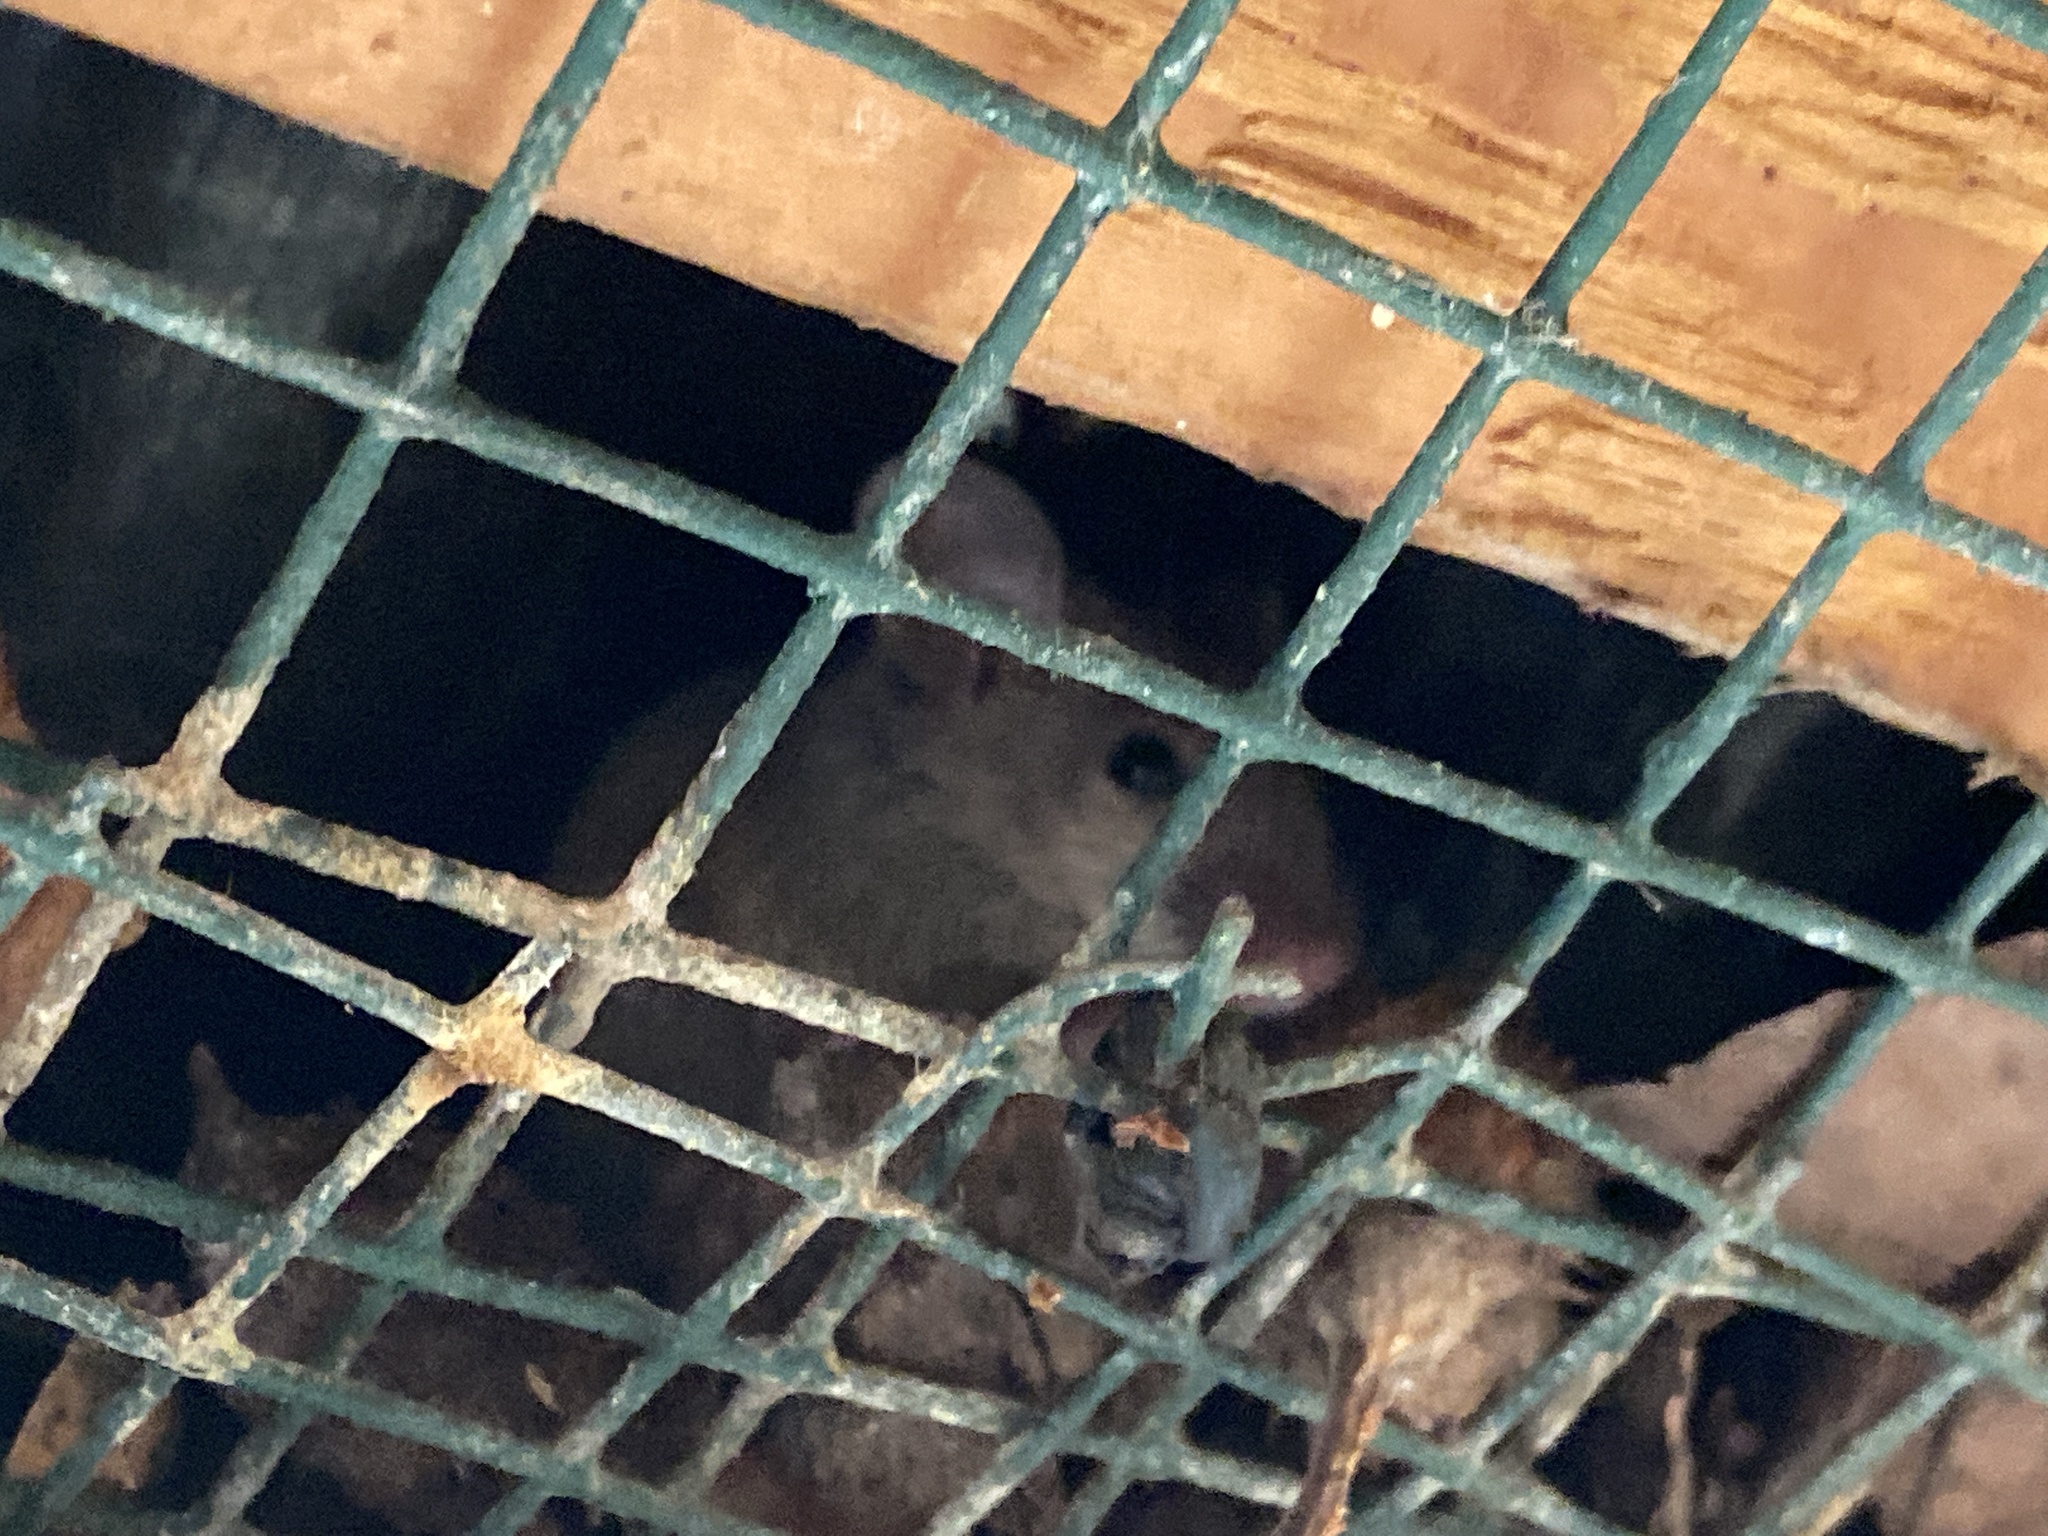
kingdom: Animalia
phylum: Chordata
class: Mammalia
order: Rodentia
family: Muridae
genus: Mus
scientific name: Mus musculus
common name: House mouse
